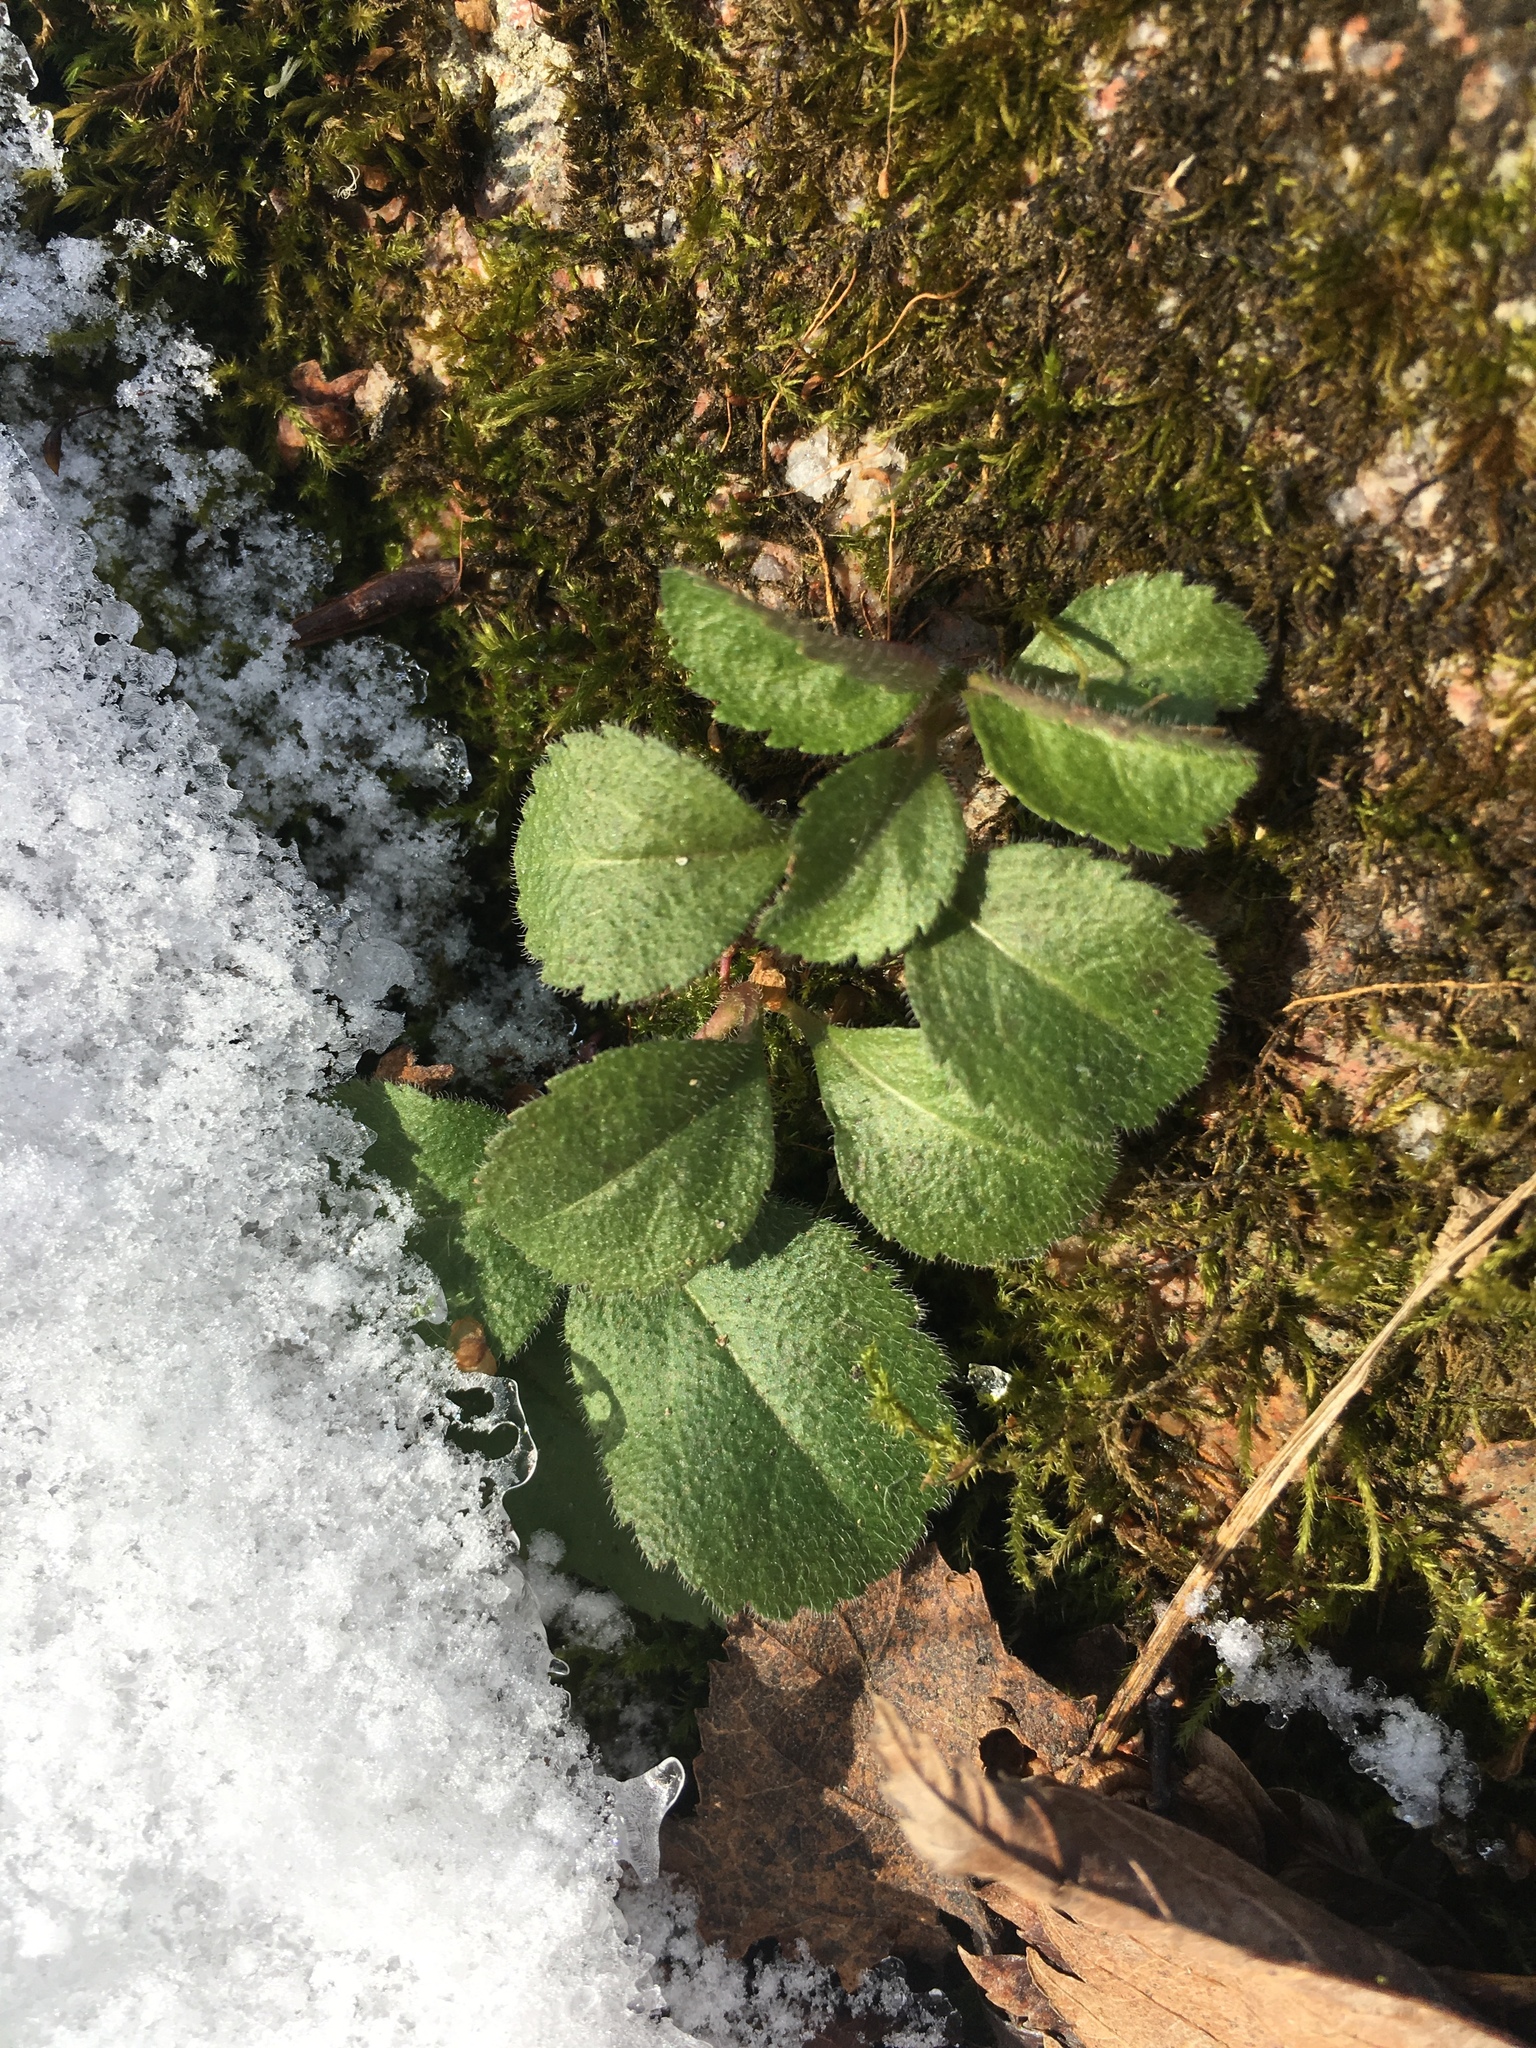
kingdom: Plantae
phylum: Tracheophyta
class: Magnoliopsida
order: Lamiales
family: Plantaginaceae
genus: Veronica
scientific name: Veronica officinalis
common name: Common speedwell
